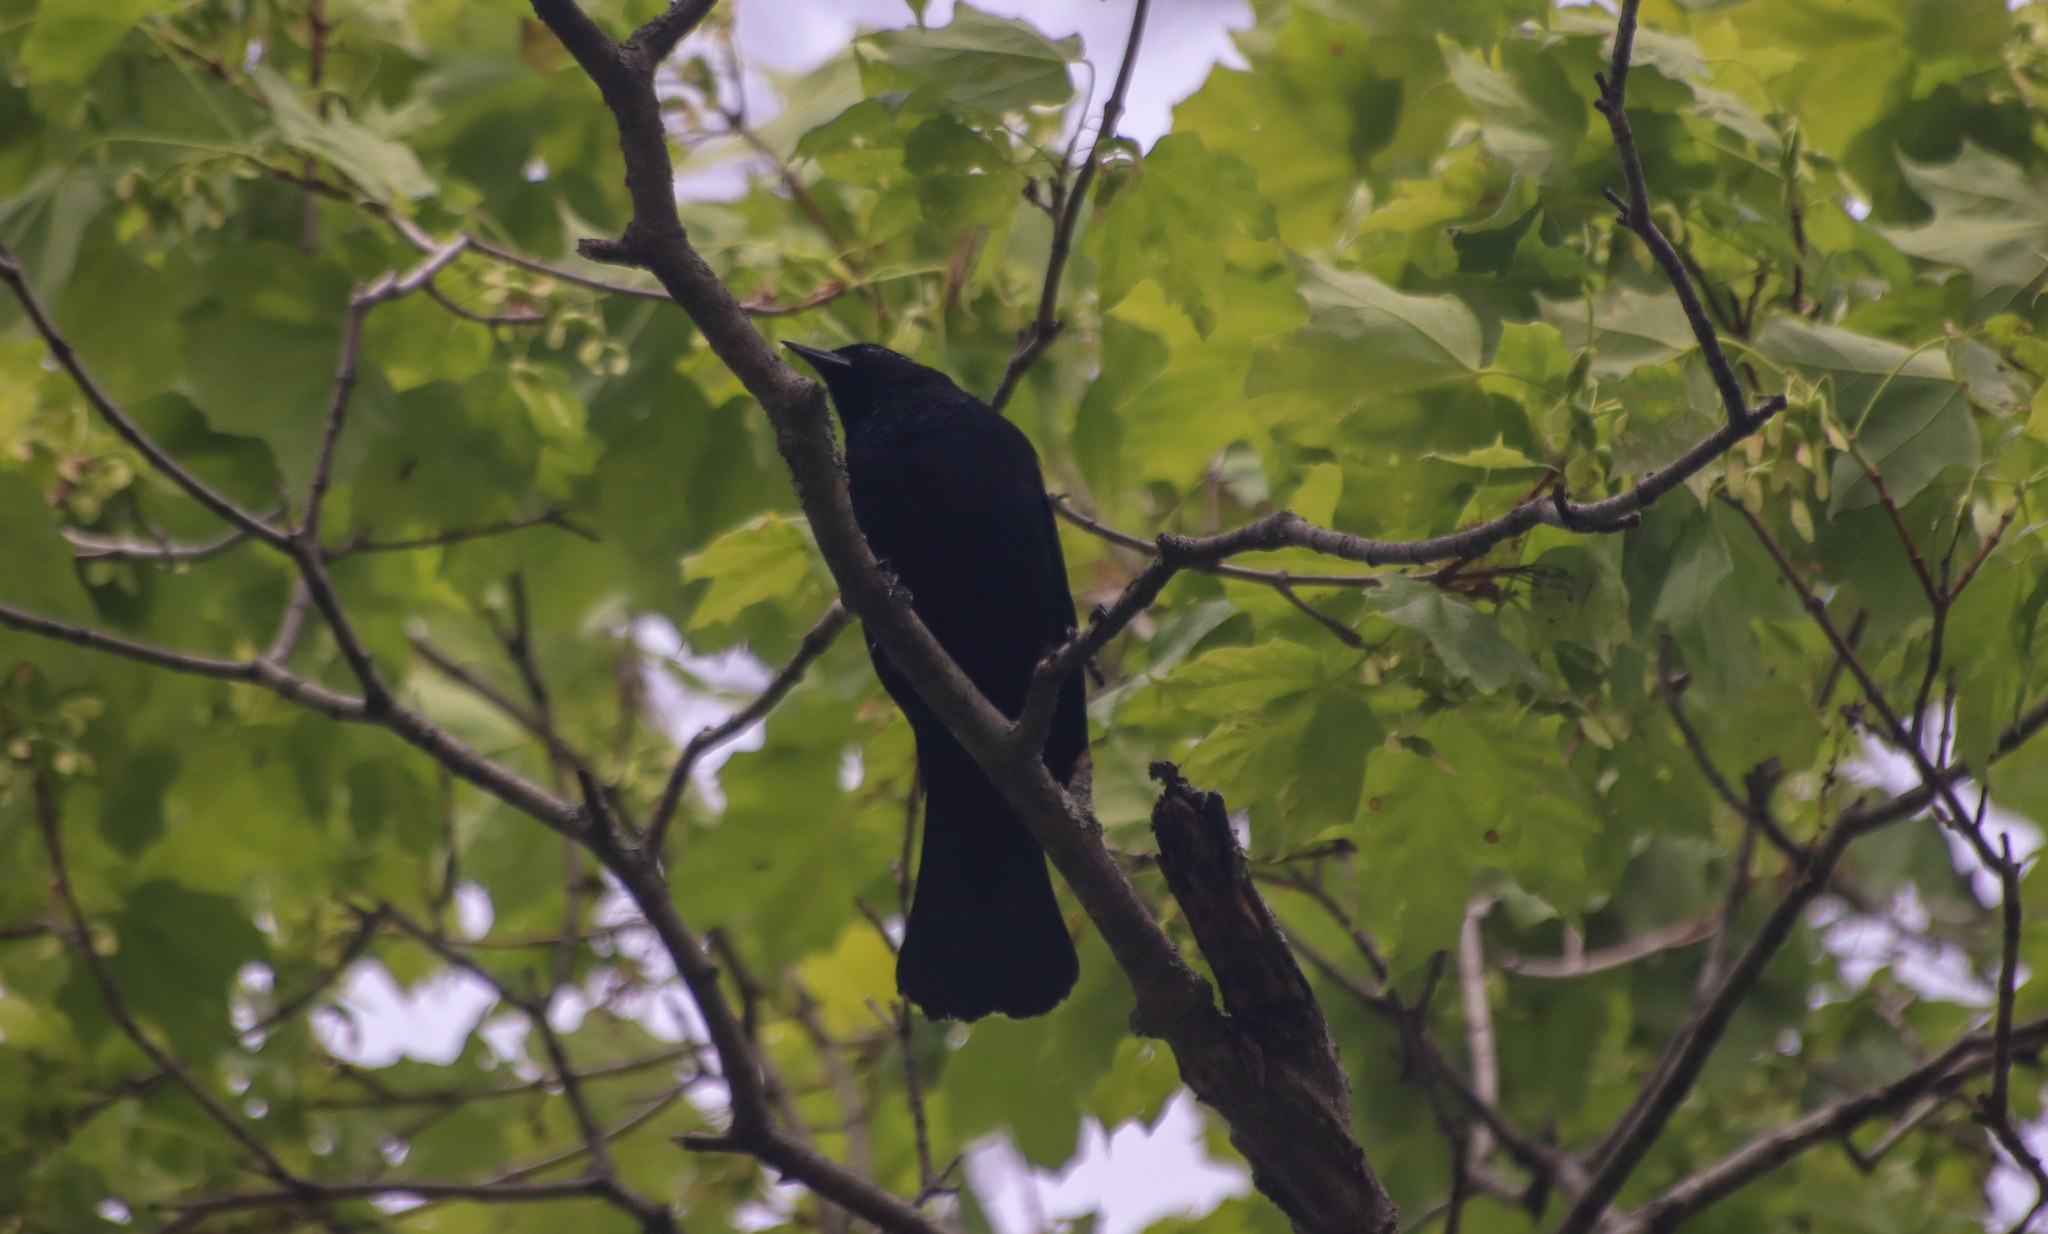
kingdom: Animalia
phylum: Chordata
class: Aves
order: Passeriformes
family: Icteridae
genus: Quiscalus
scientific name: Quiscalus quiscula
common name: Common grackle
